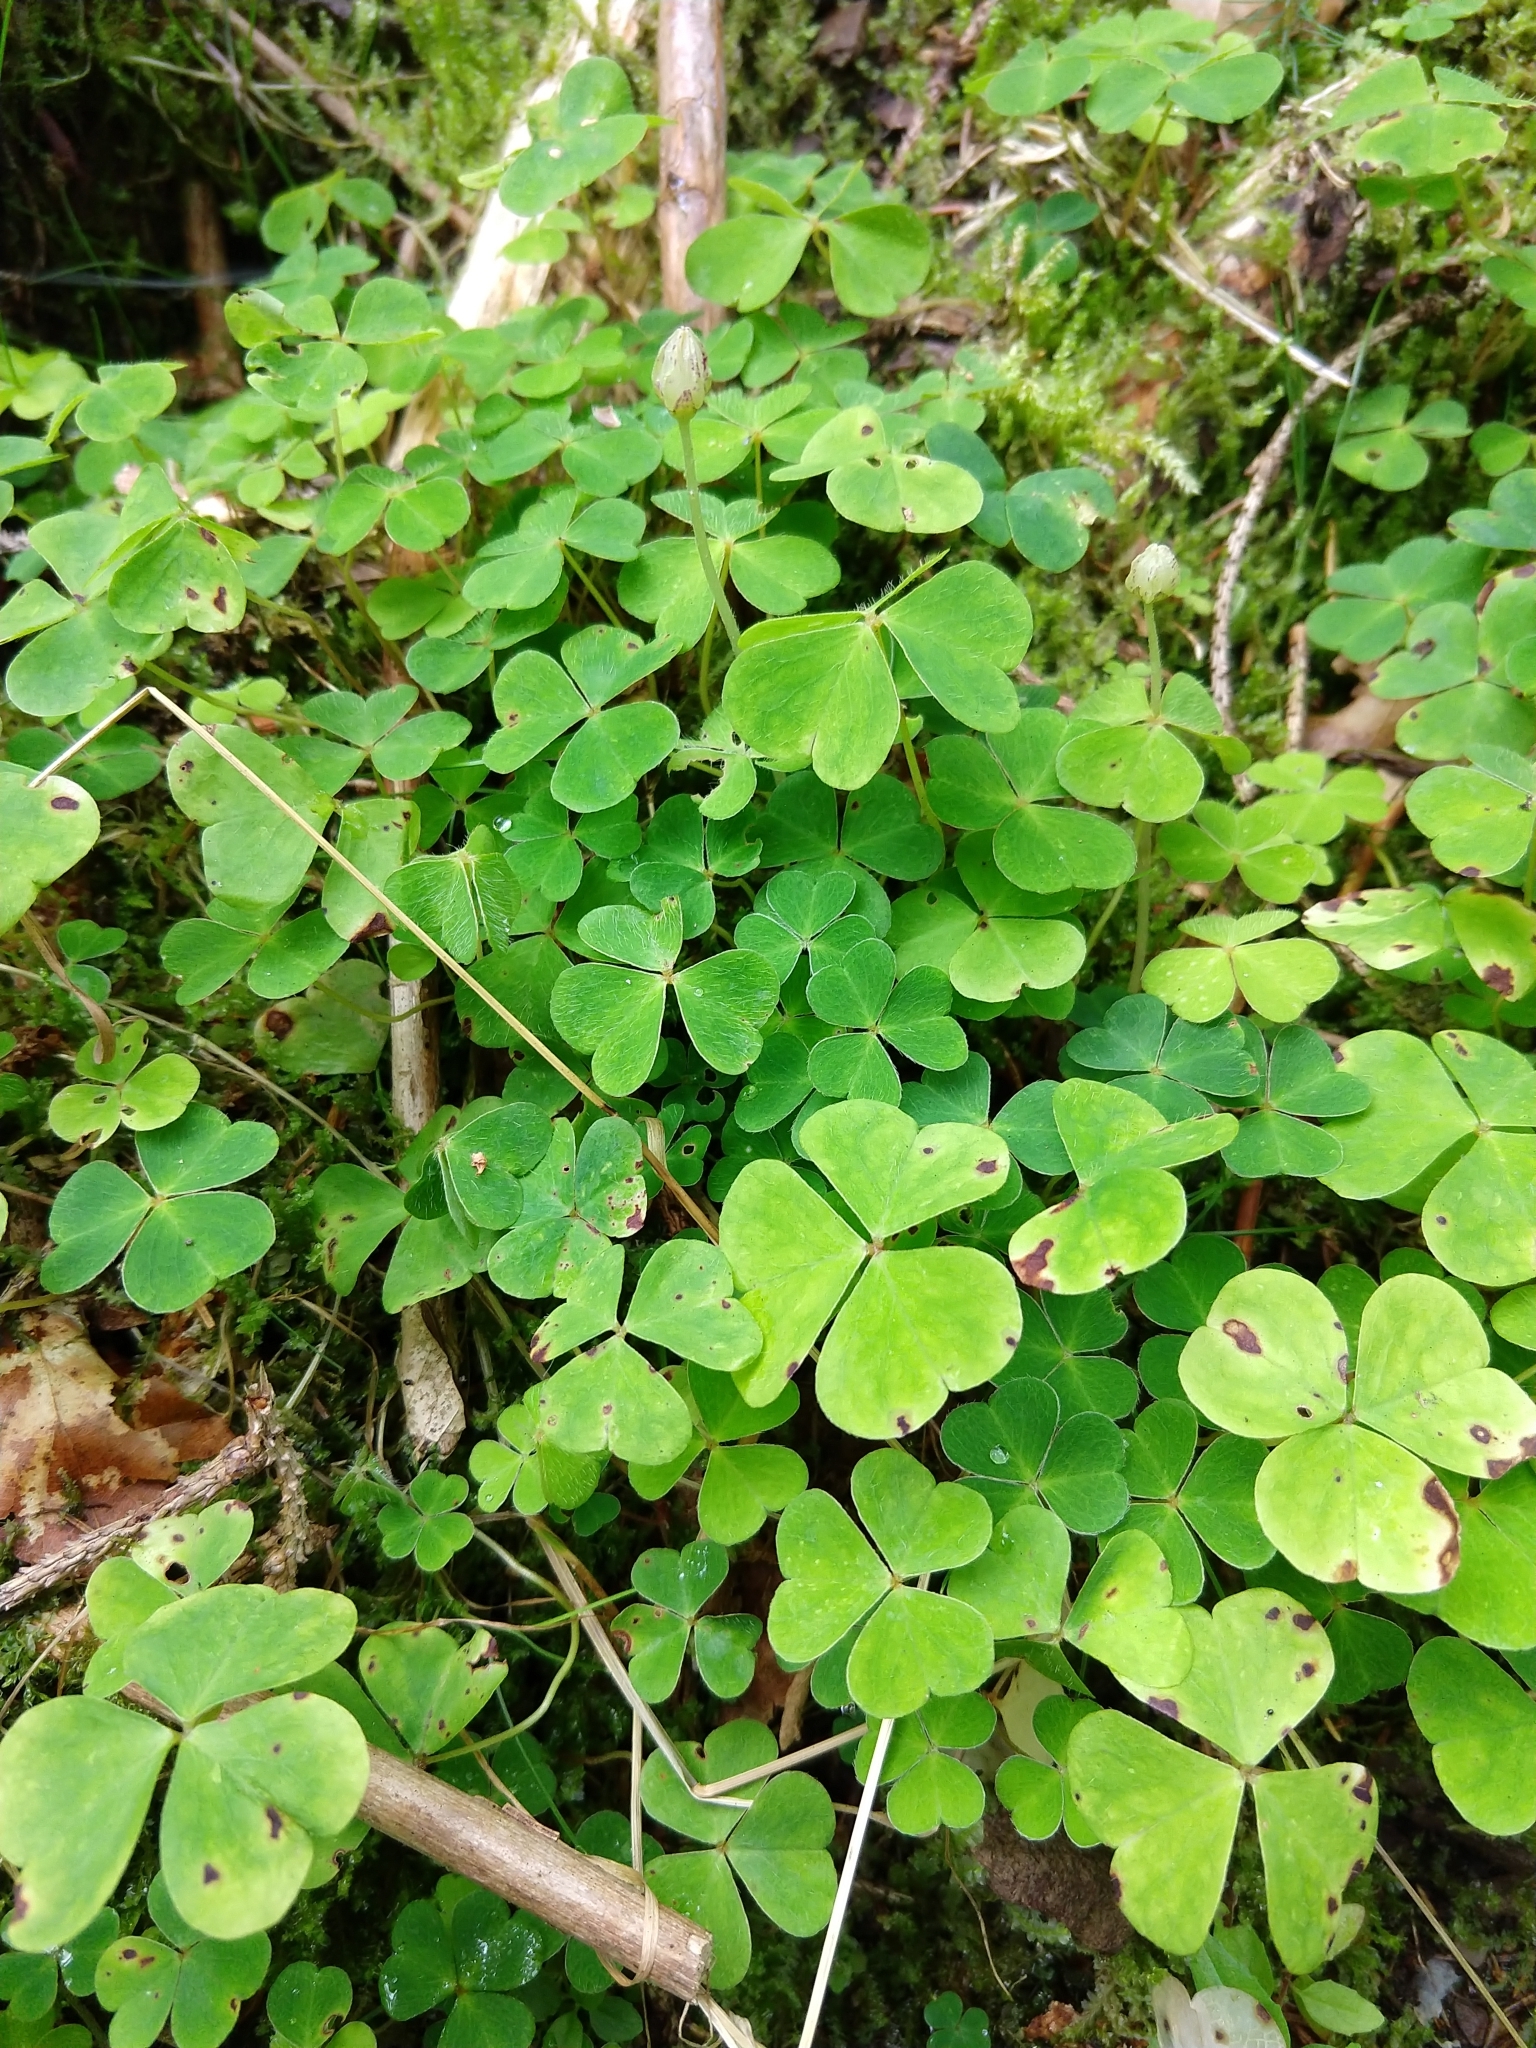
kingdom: Plantae
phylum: Tracheophyta
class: Magnoliopsida
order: Oxalidales
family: Oxalidaceae
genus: Oxalis
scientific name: Oxalis acetosella
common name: Wood-sorrel
